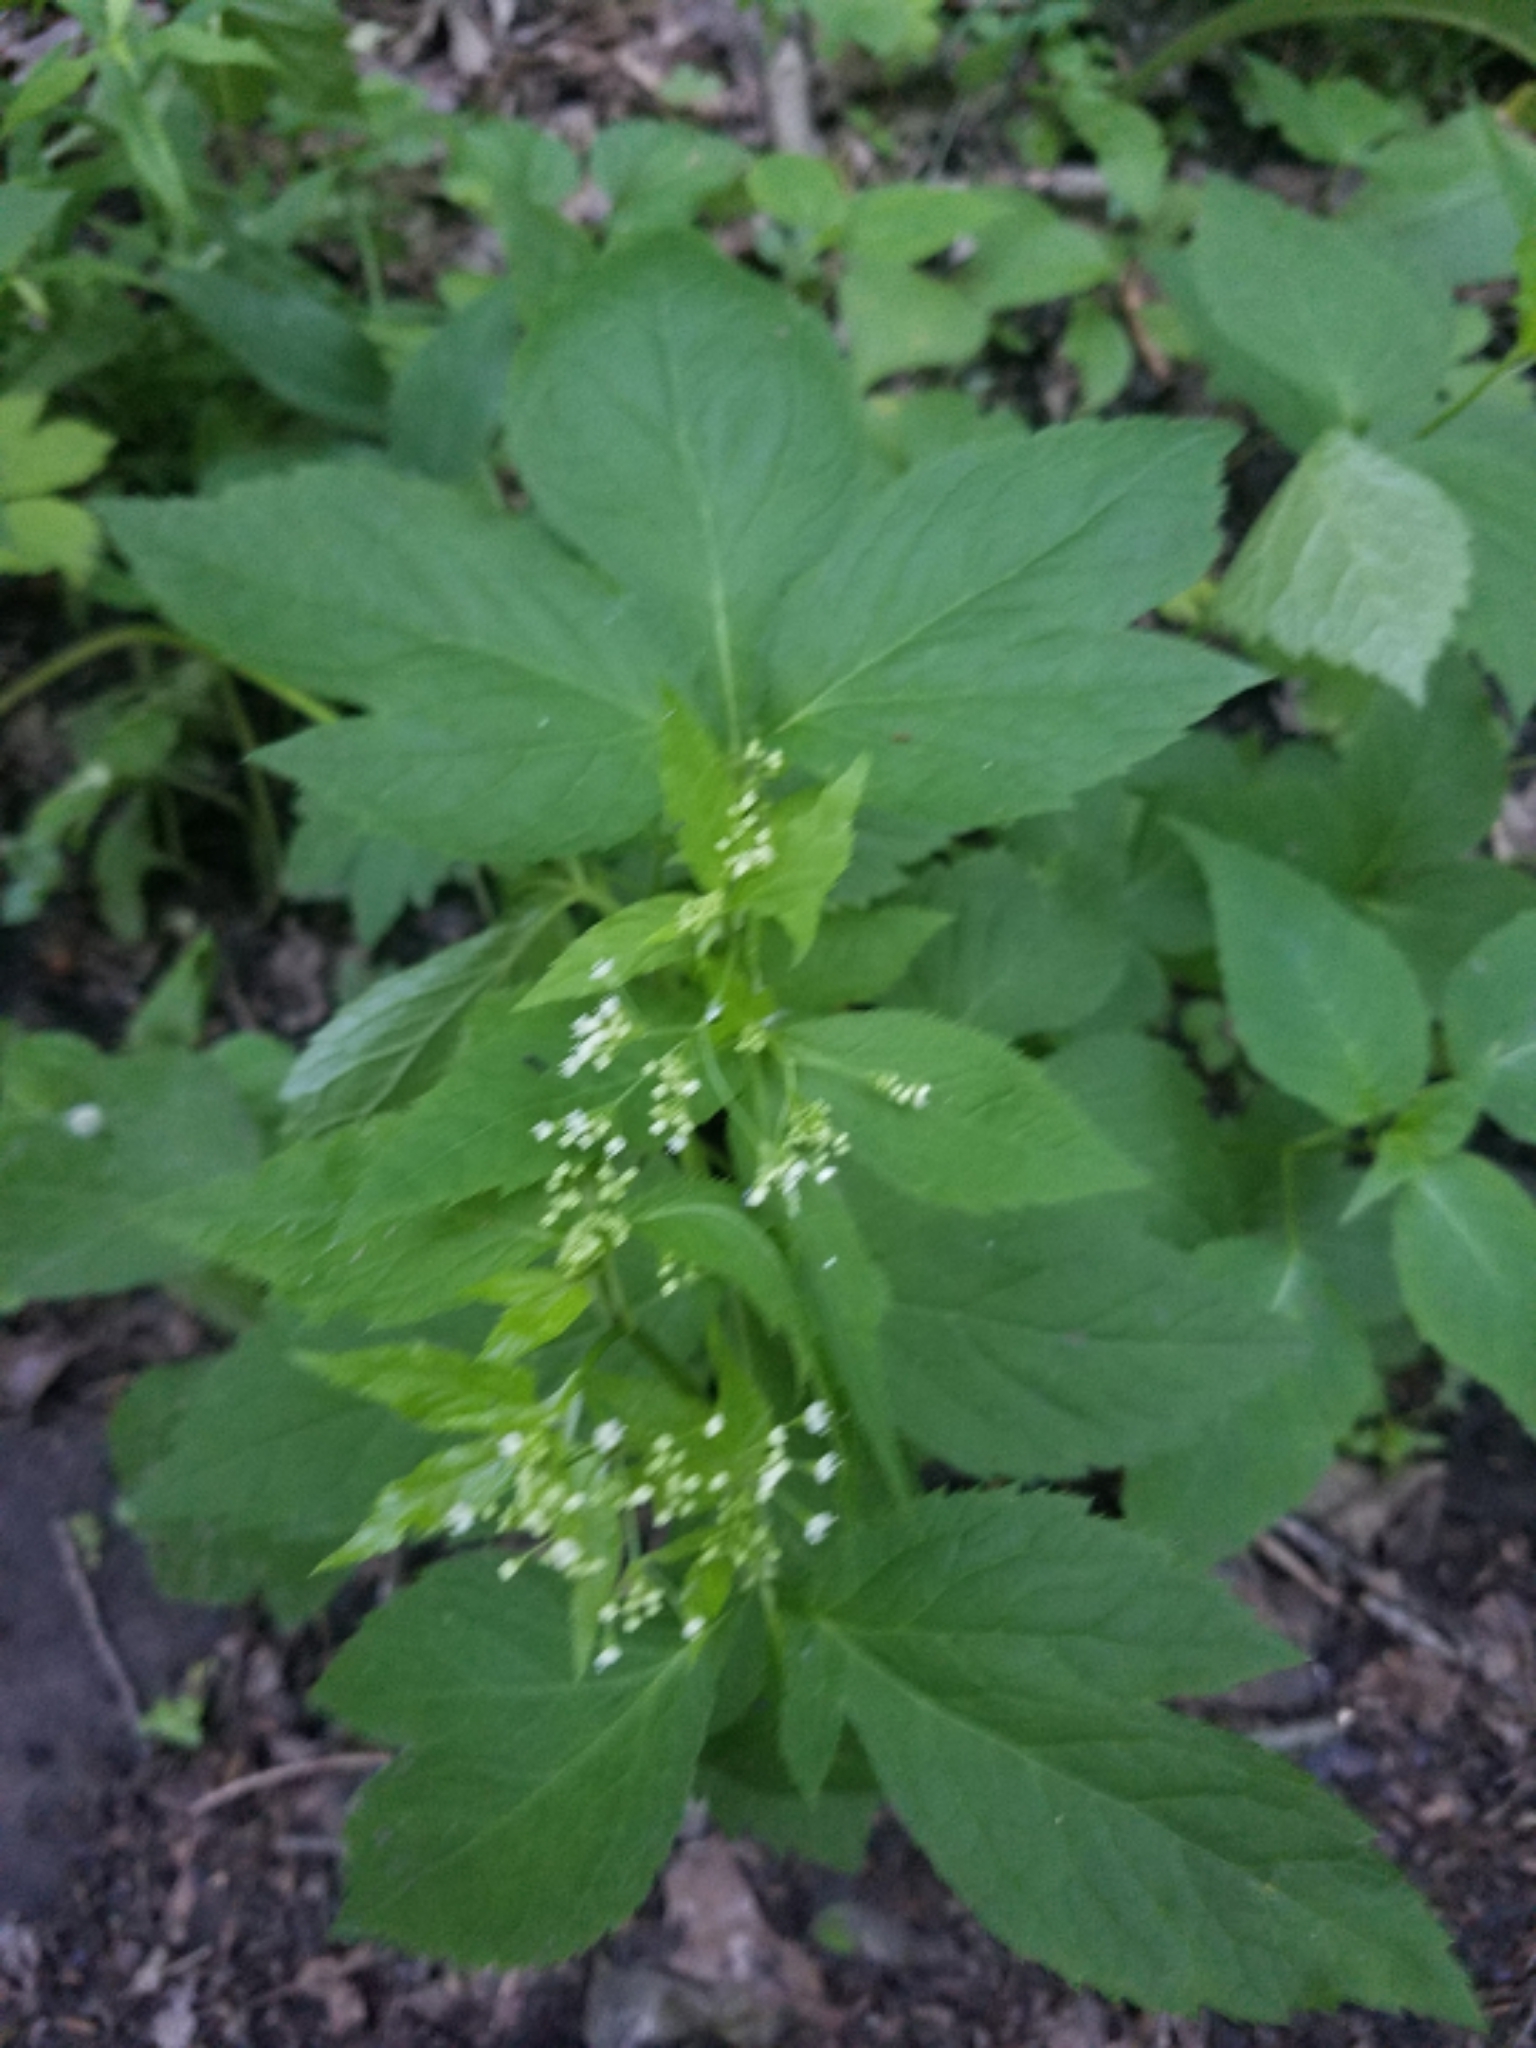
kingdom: Plantae
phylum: Tracheophyta
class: Magnoliopsida
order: Apiales
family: Apiaceae
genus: Cryptotaenia
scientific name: Cryptotaenia canadensis
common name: Honewort
